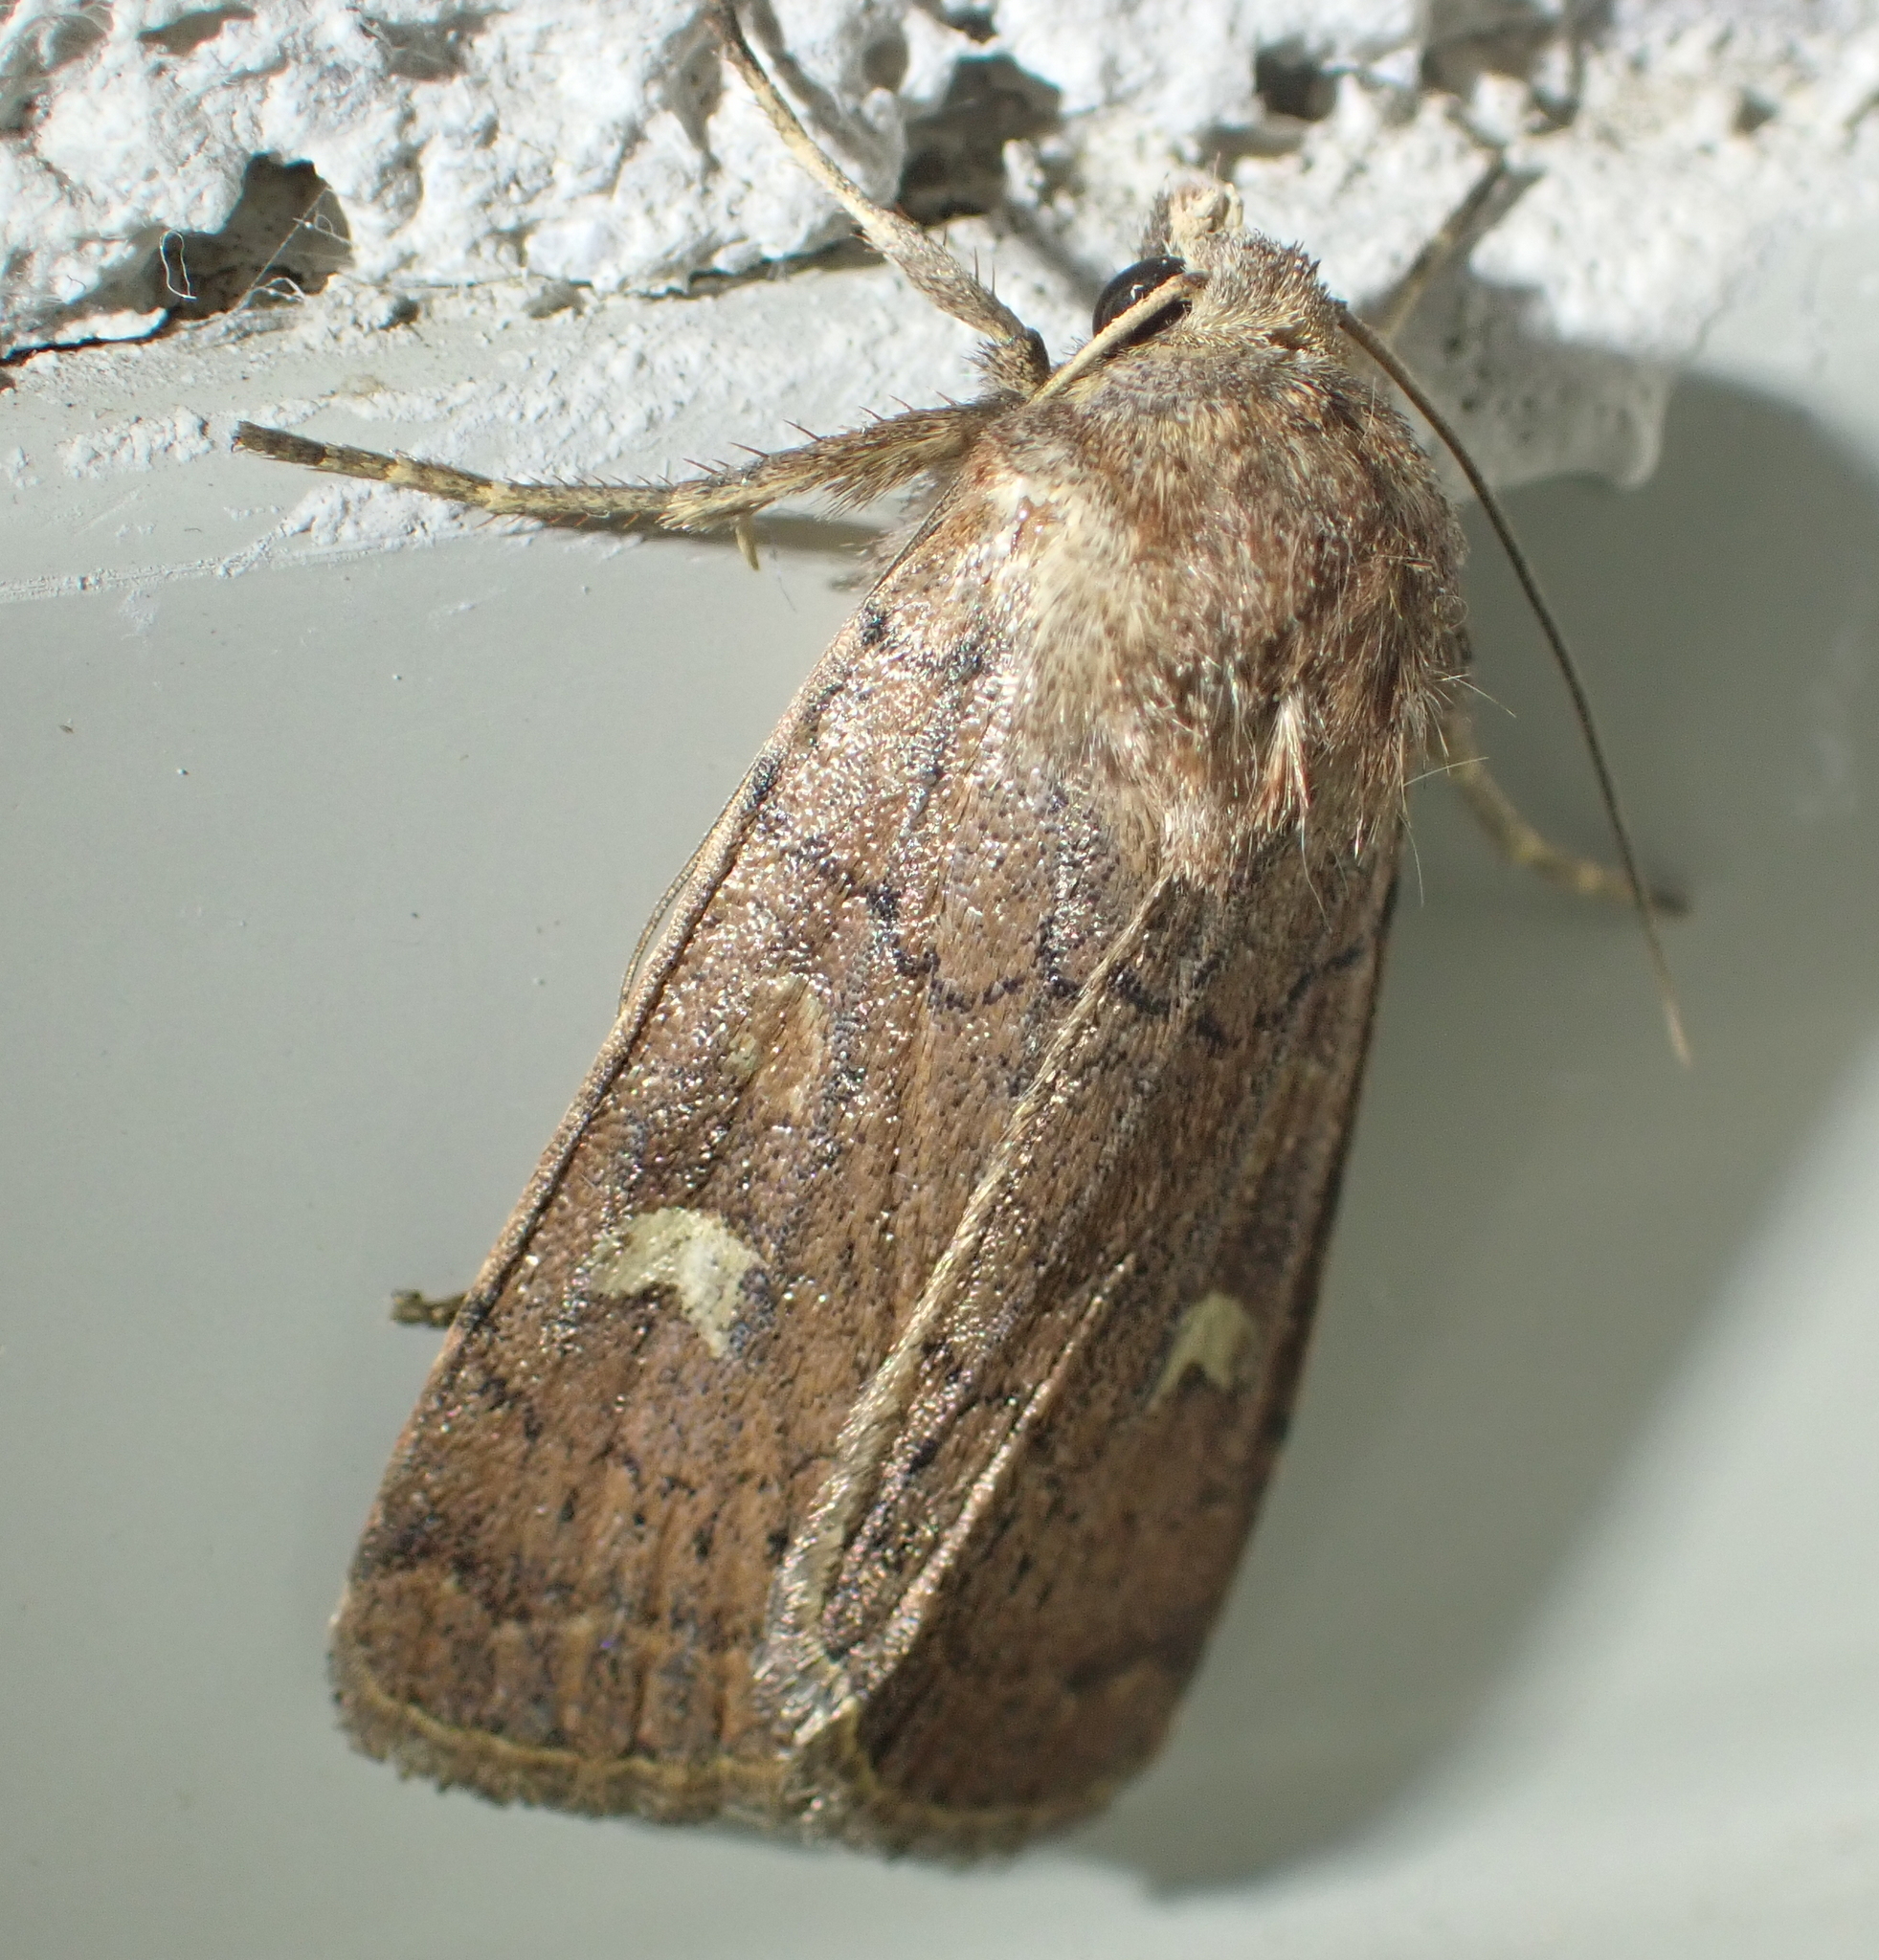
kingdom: Animalia
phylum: Arthropoda
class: Insecta
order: Lepidoptera
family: Noctuidae
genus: Xestia
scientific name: Xestia xanthographa
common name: Square-spot rustic
